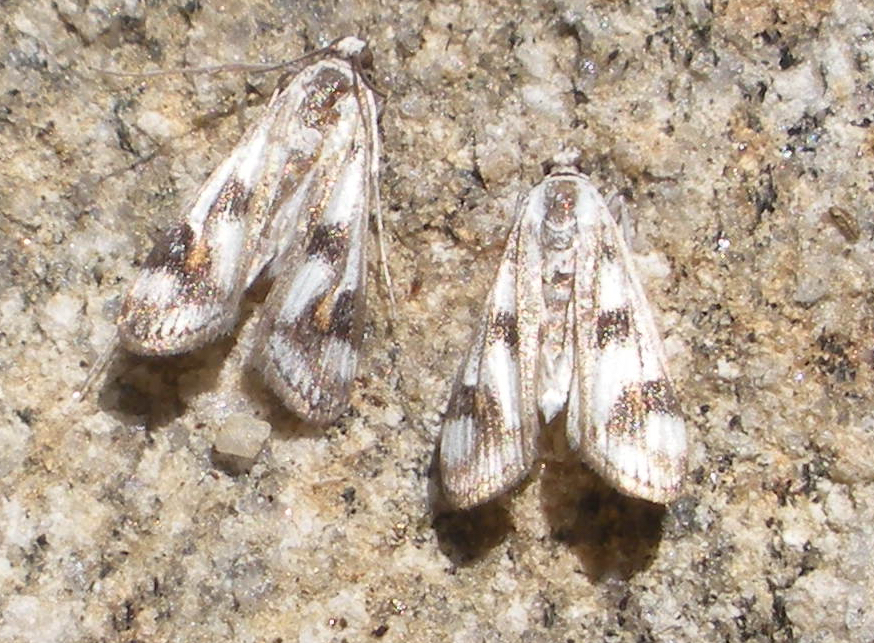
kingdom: Animalia
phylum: Arthropoda
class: Insecta
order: Lepidoptera
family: Crambidae
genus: Parapoynx
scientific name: Parapoynx maculalis
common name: Polymorphic pondweed moth
